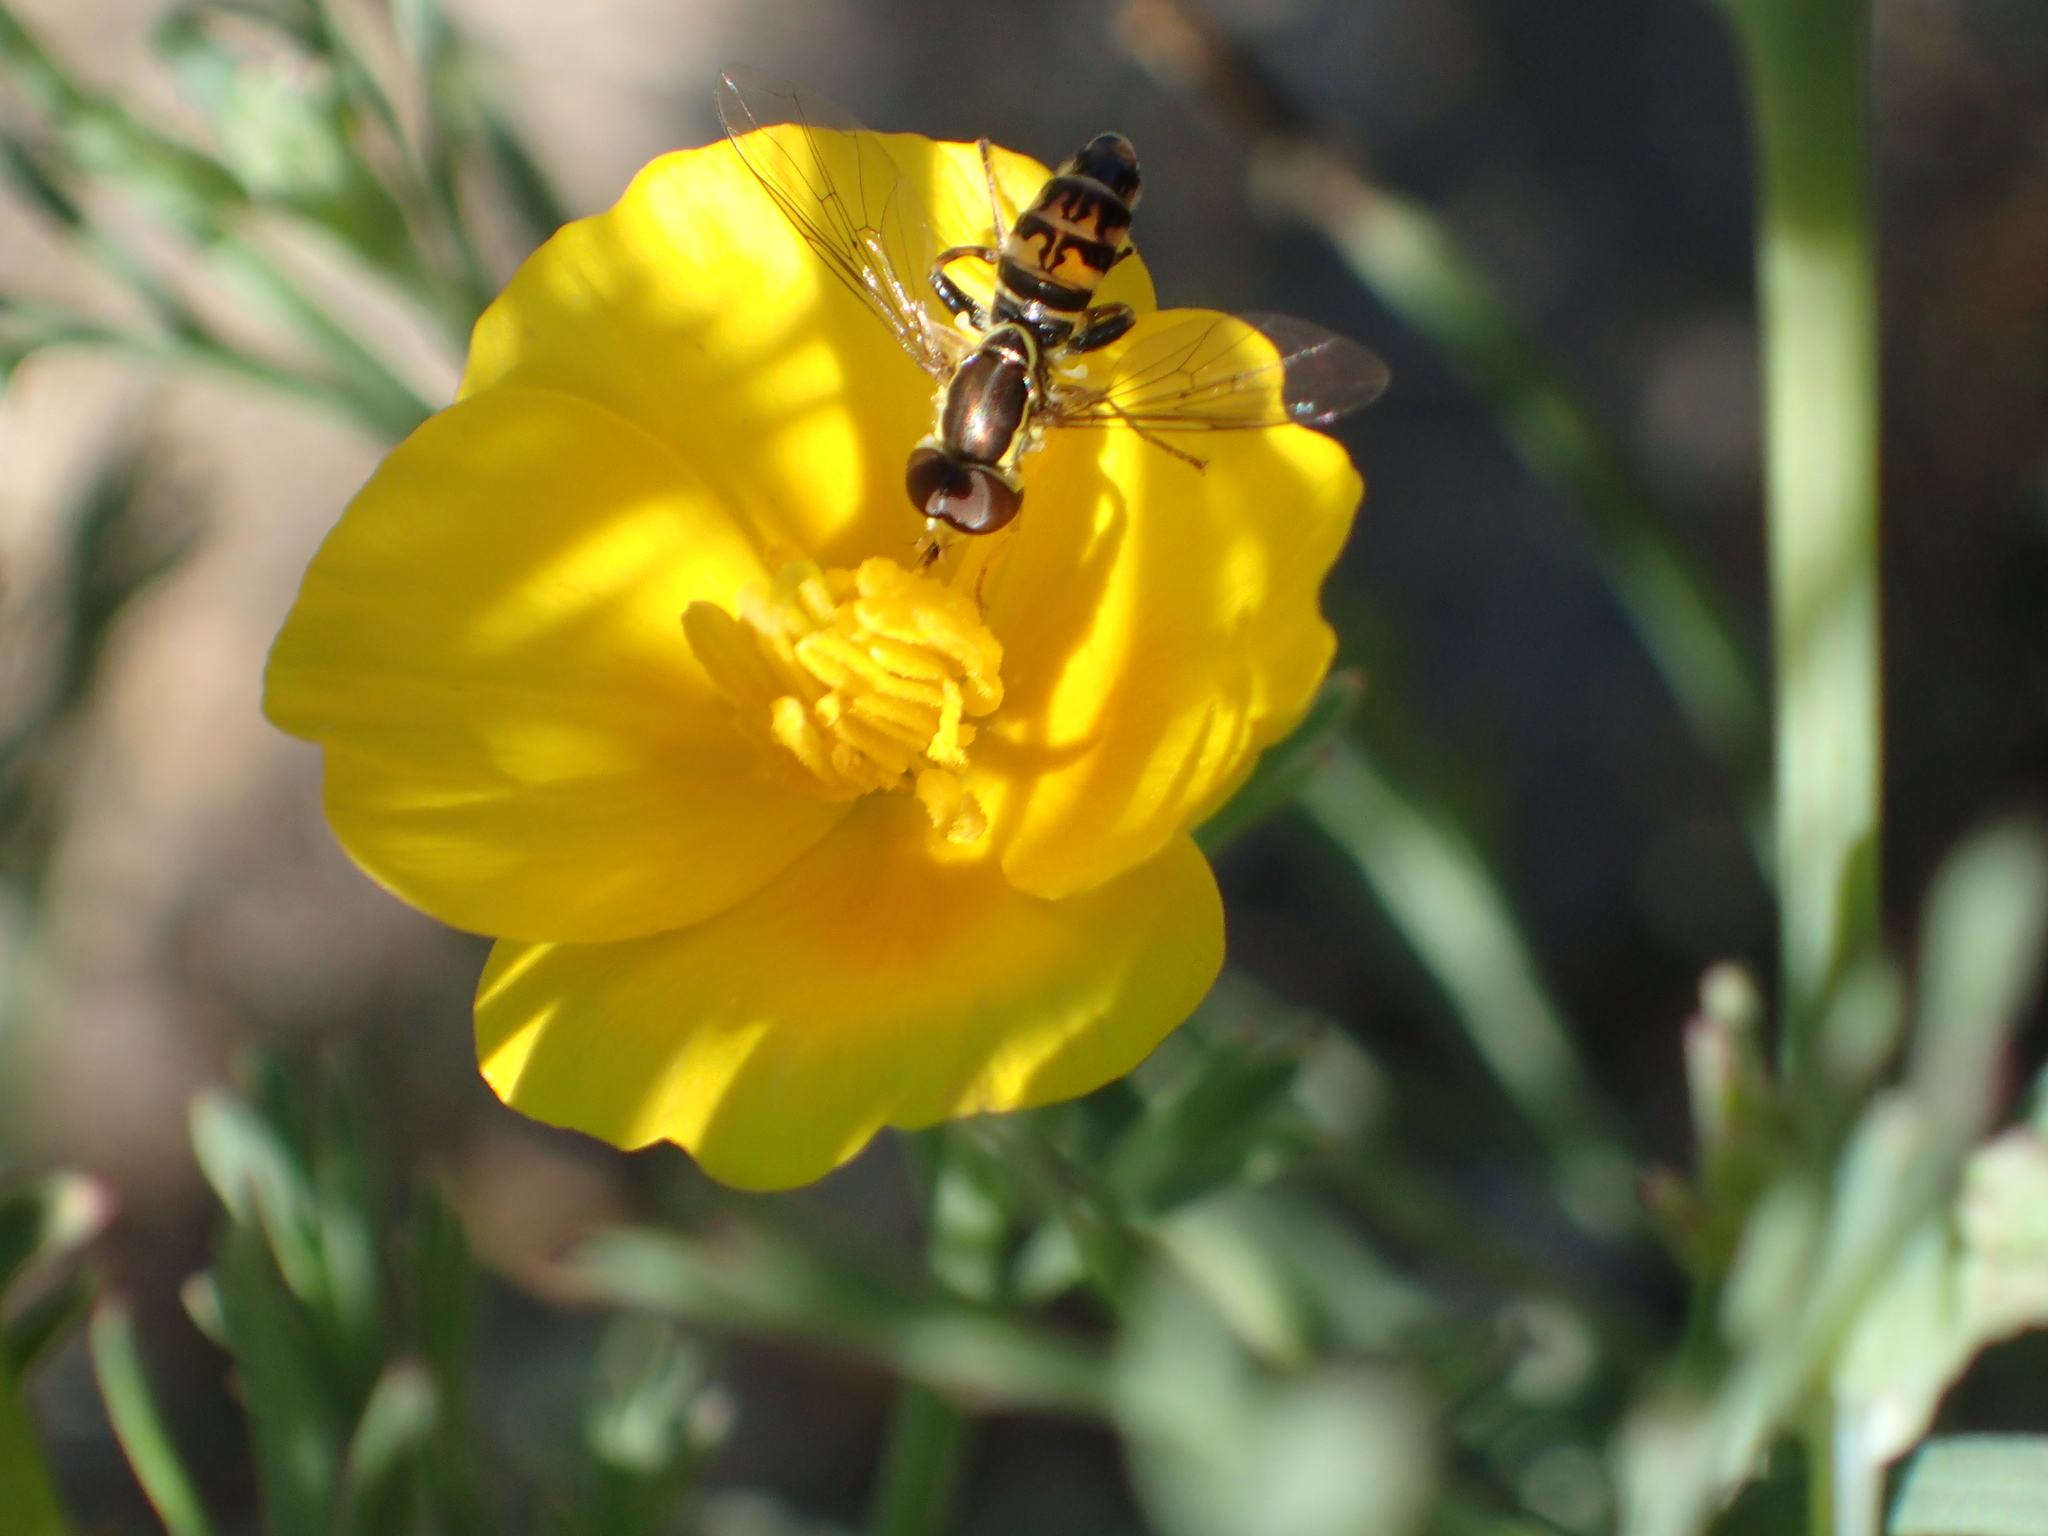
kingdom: Animalia
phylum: Arthropoda
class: Insecta
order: Diptera
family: Syrphidae
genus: Toxomerus
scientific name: Toxomerus occidentalis
